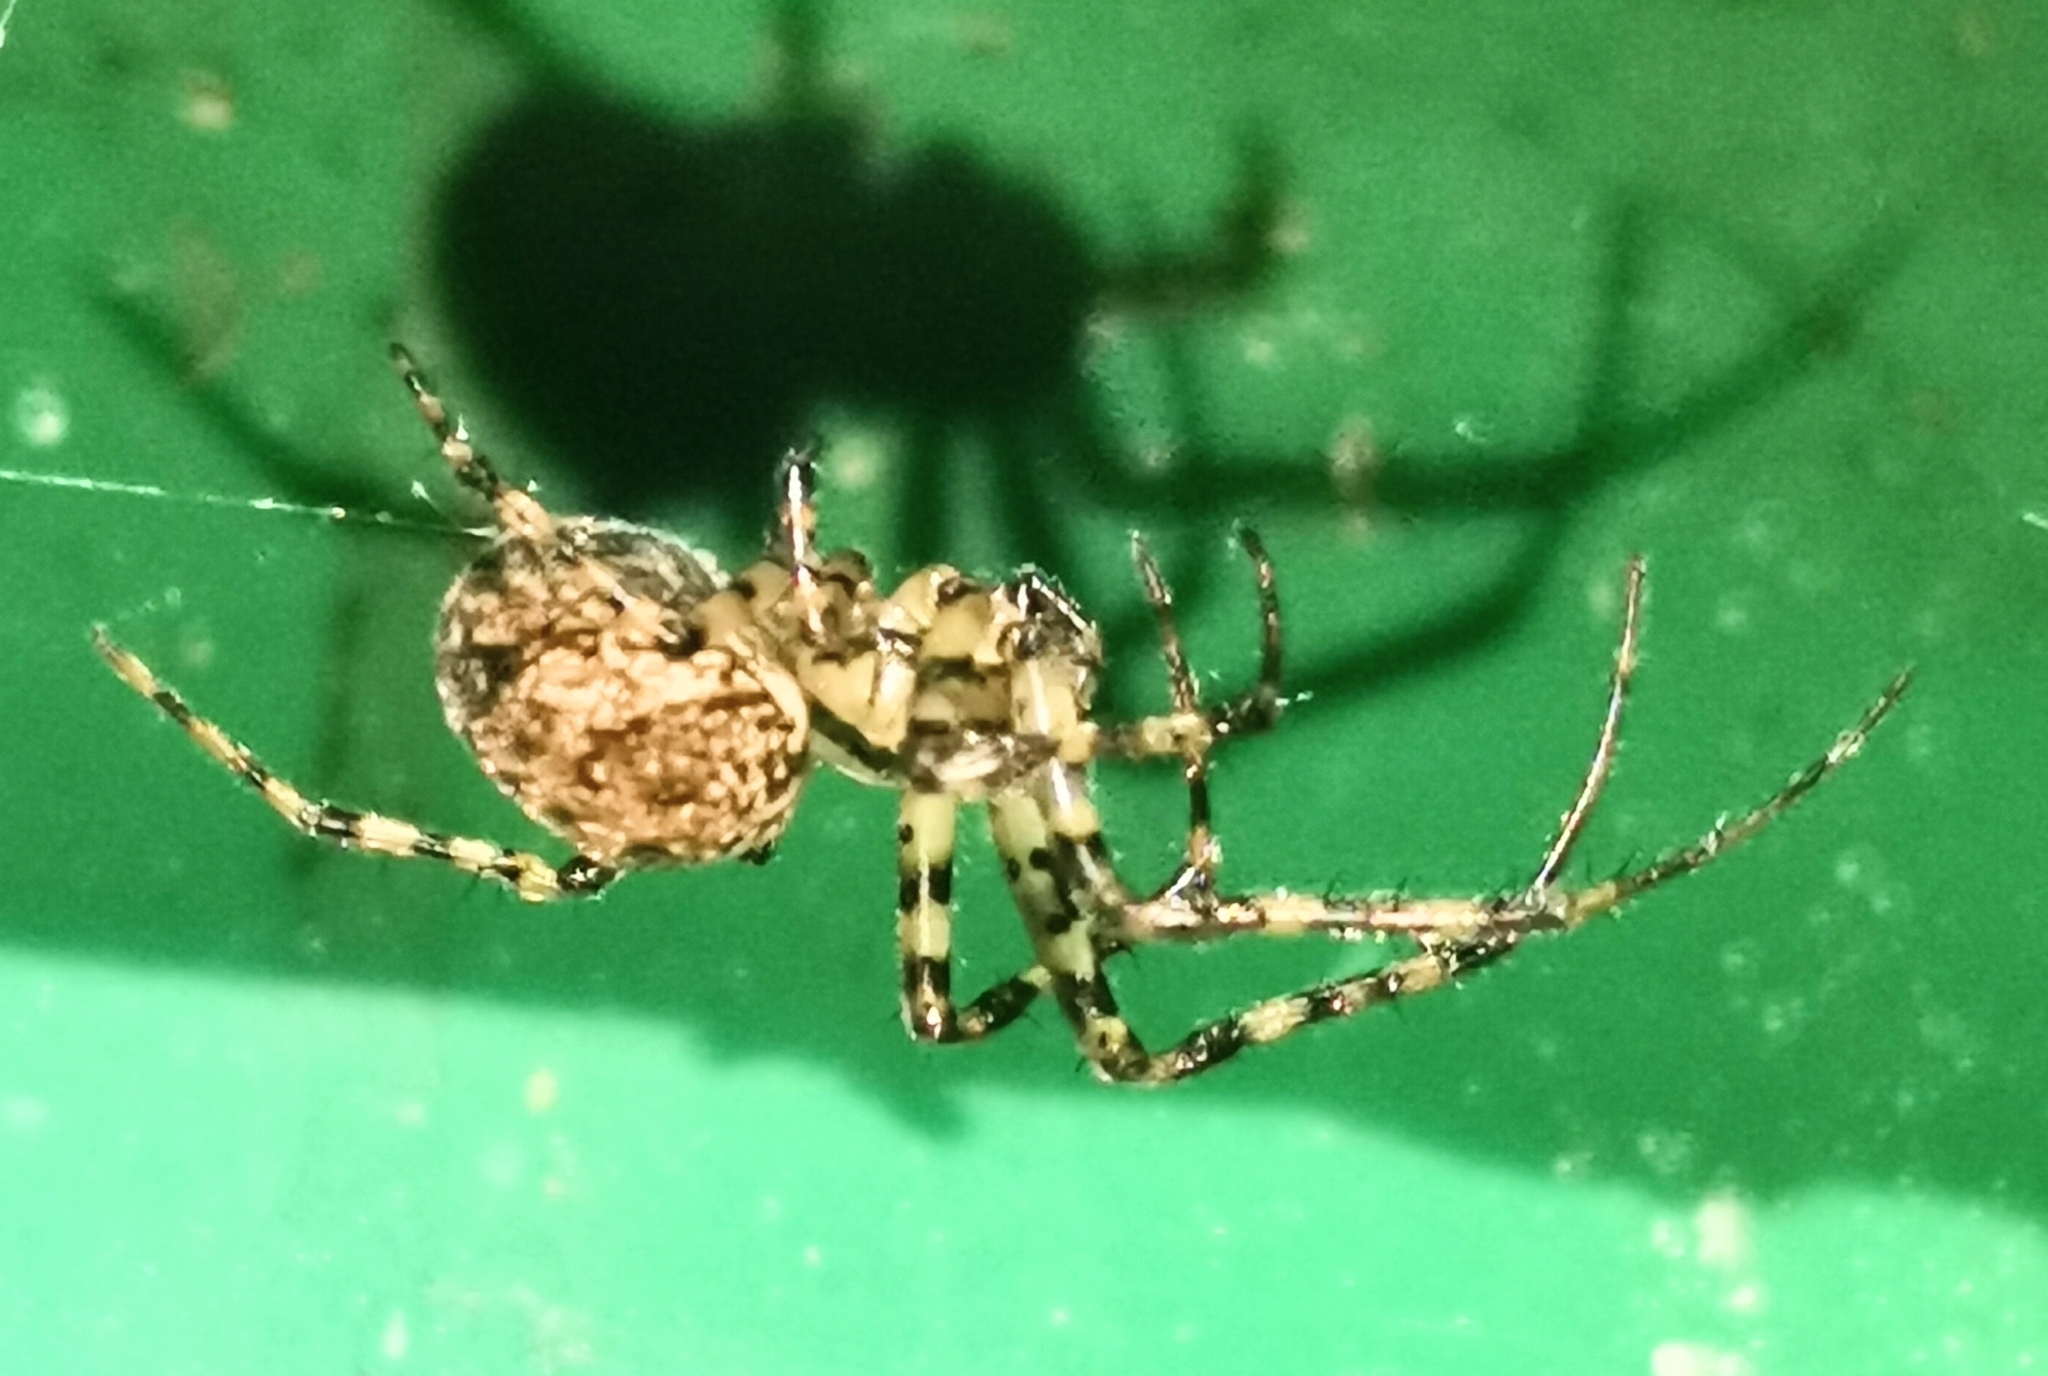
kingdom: Animalia
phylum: Arthropoda
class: Arachnida
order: Araneae
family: Tetragnathidae
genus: Metellina
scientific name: Metellina merianae
